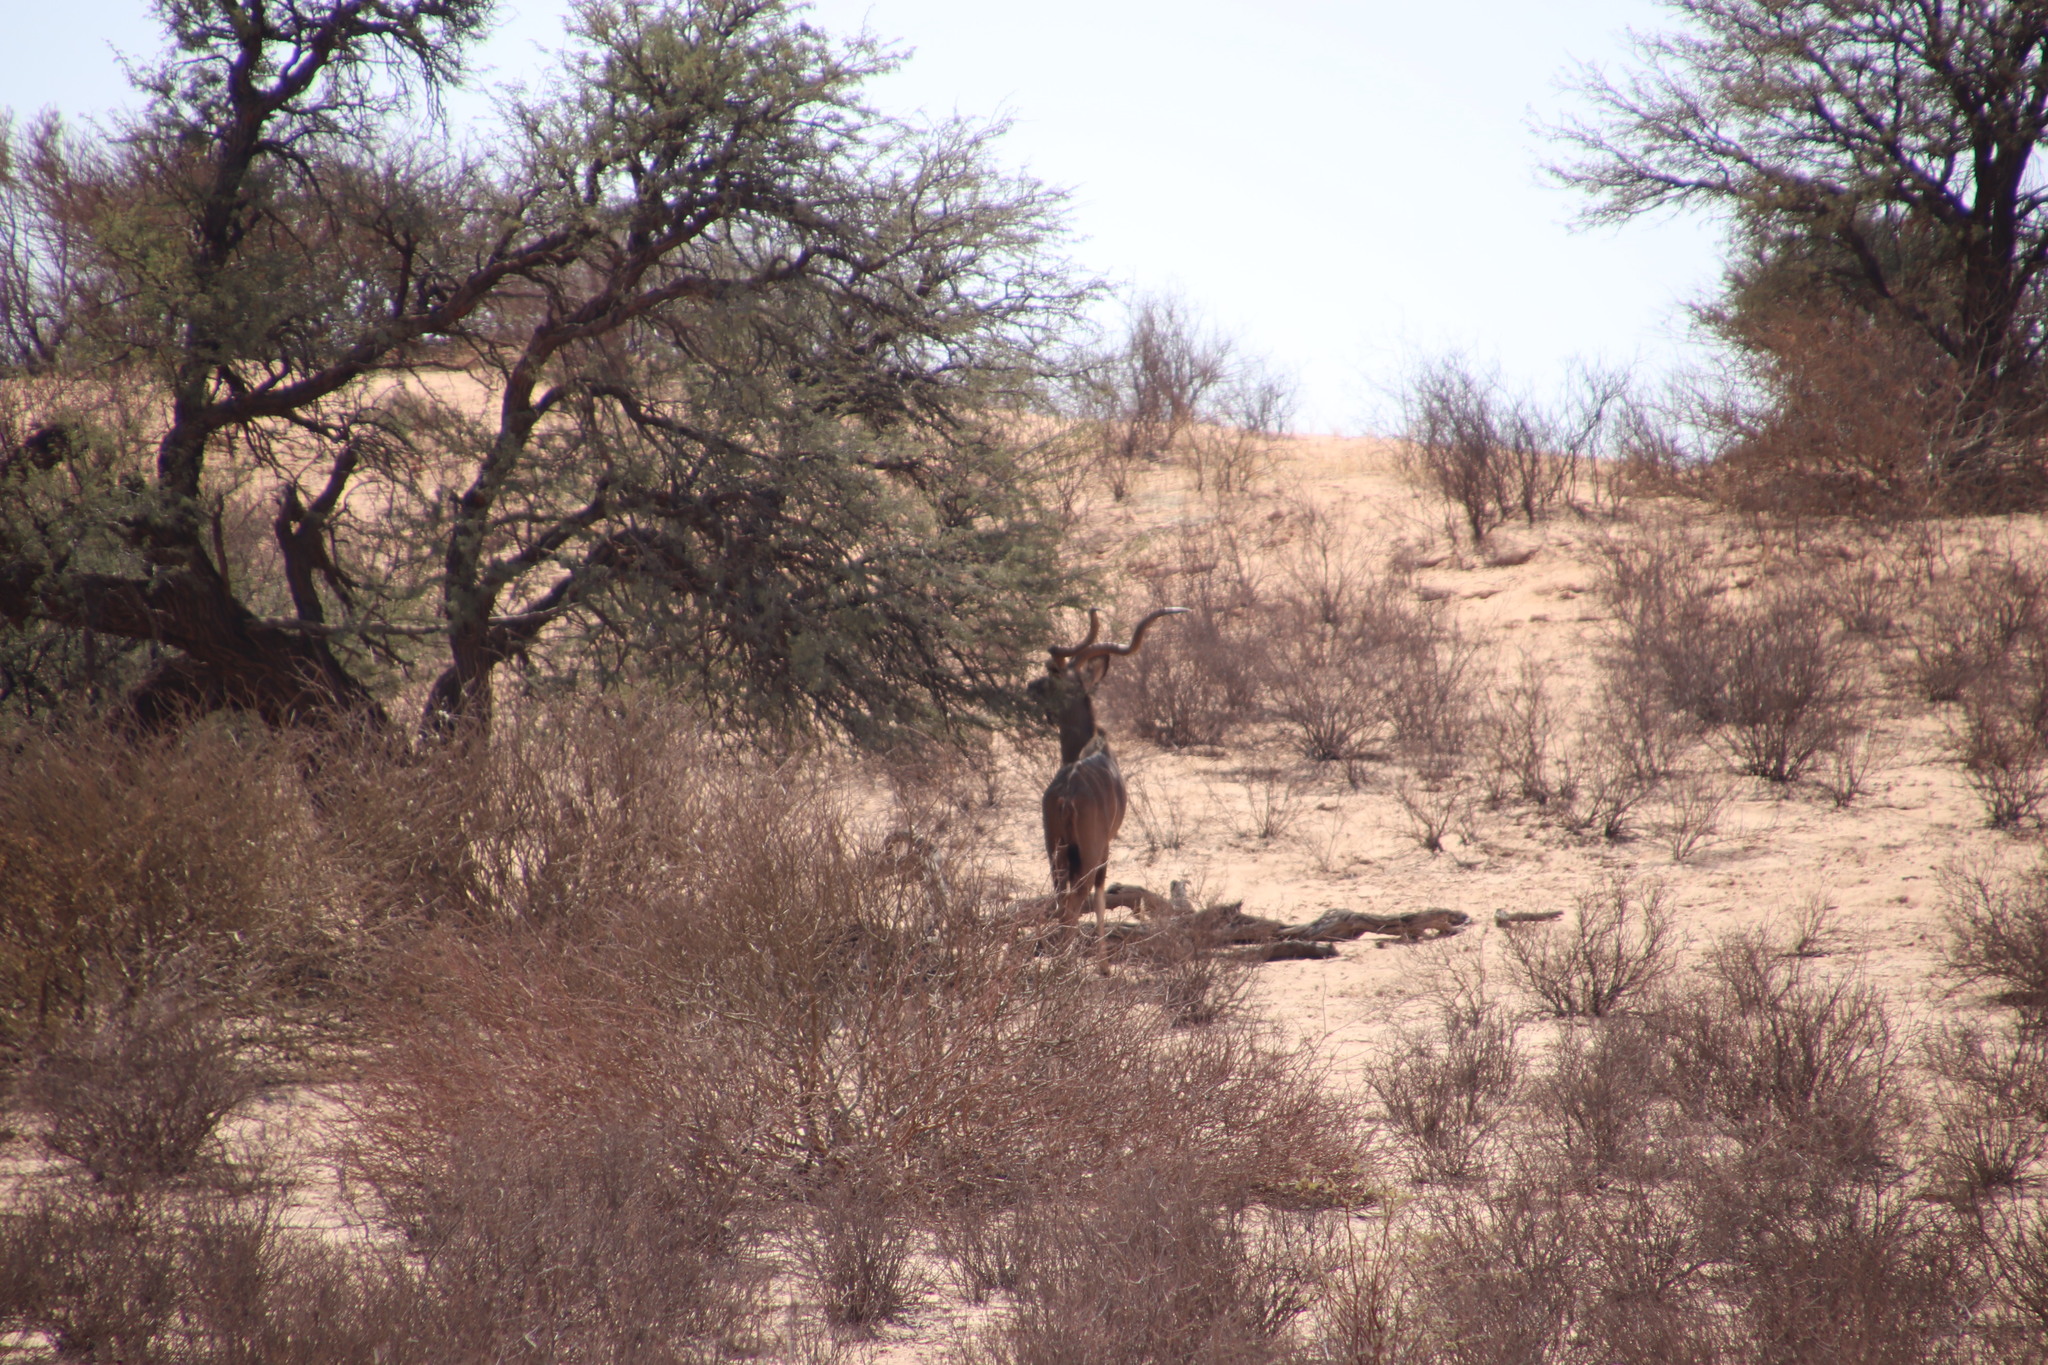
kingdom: Animalia
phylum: Chordata
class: Mammalia
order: Artiodactyla
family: Bovidae
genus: Tragelaphus
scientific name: Tragelaphus strepsiceros
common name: Greater kudu
